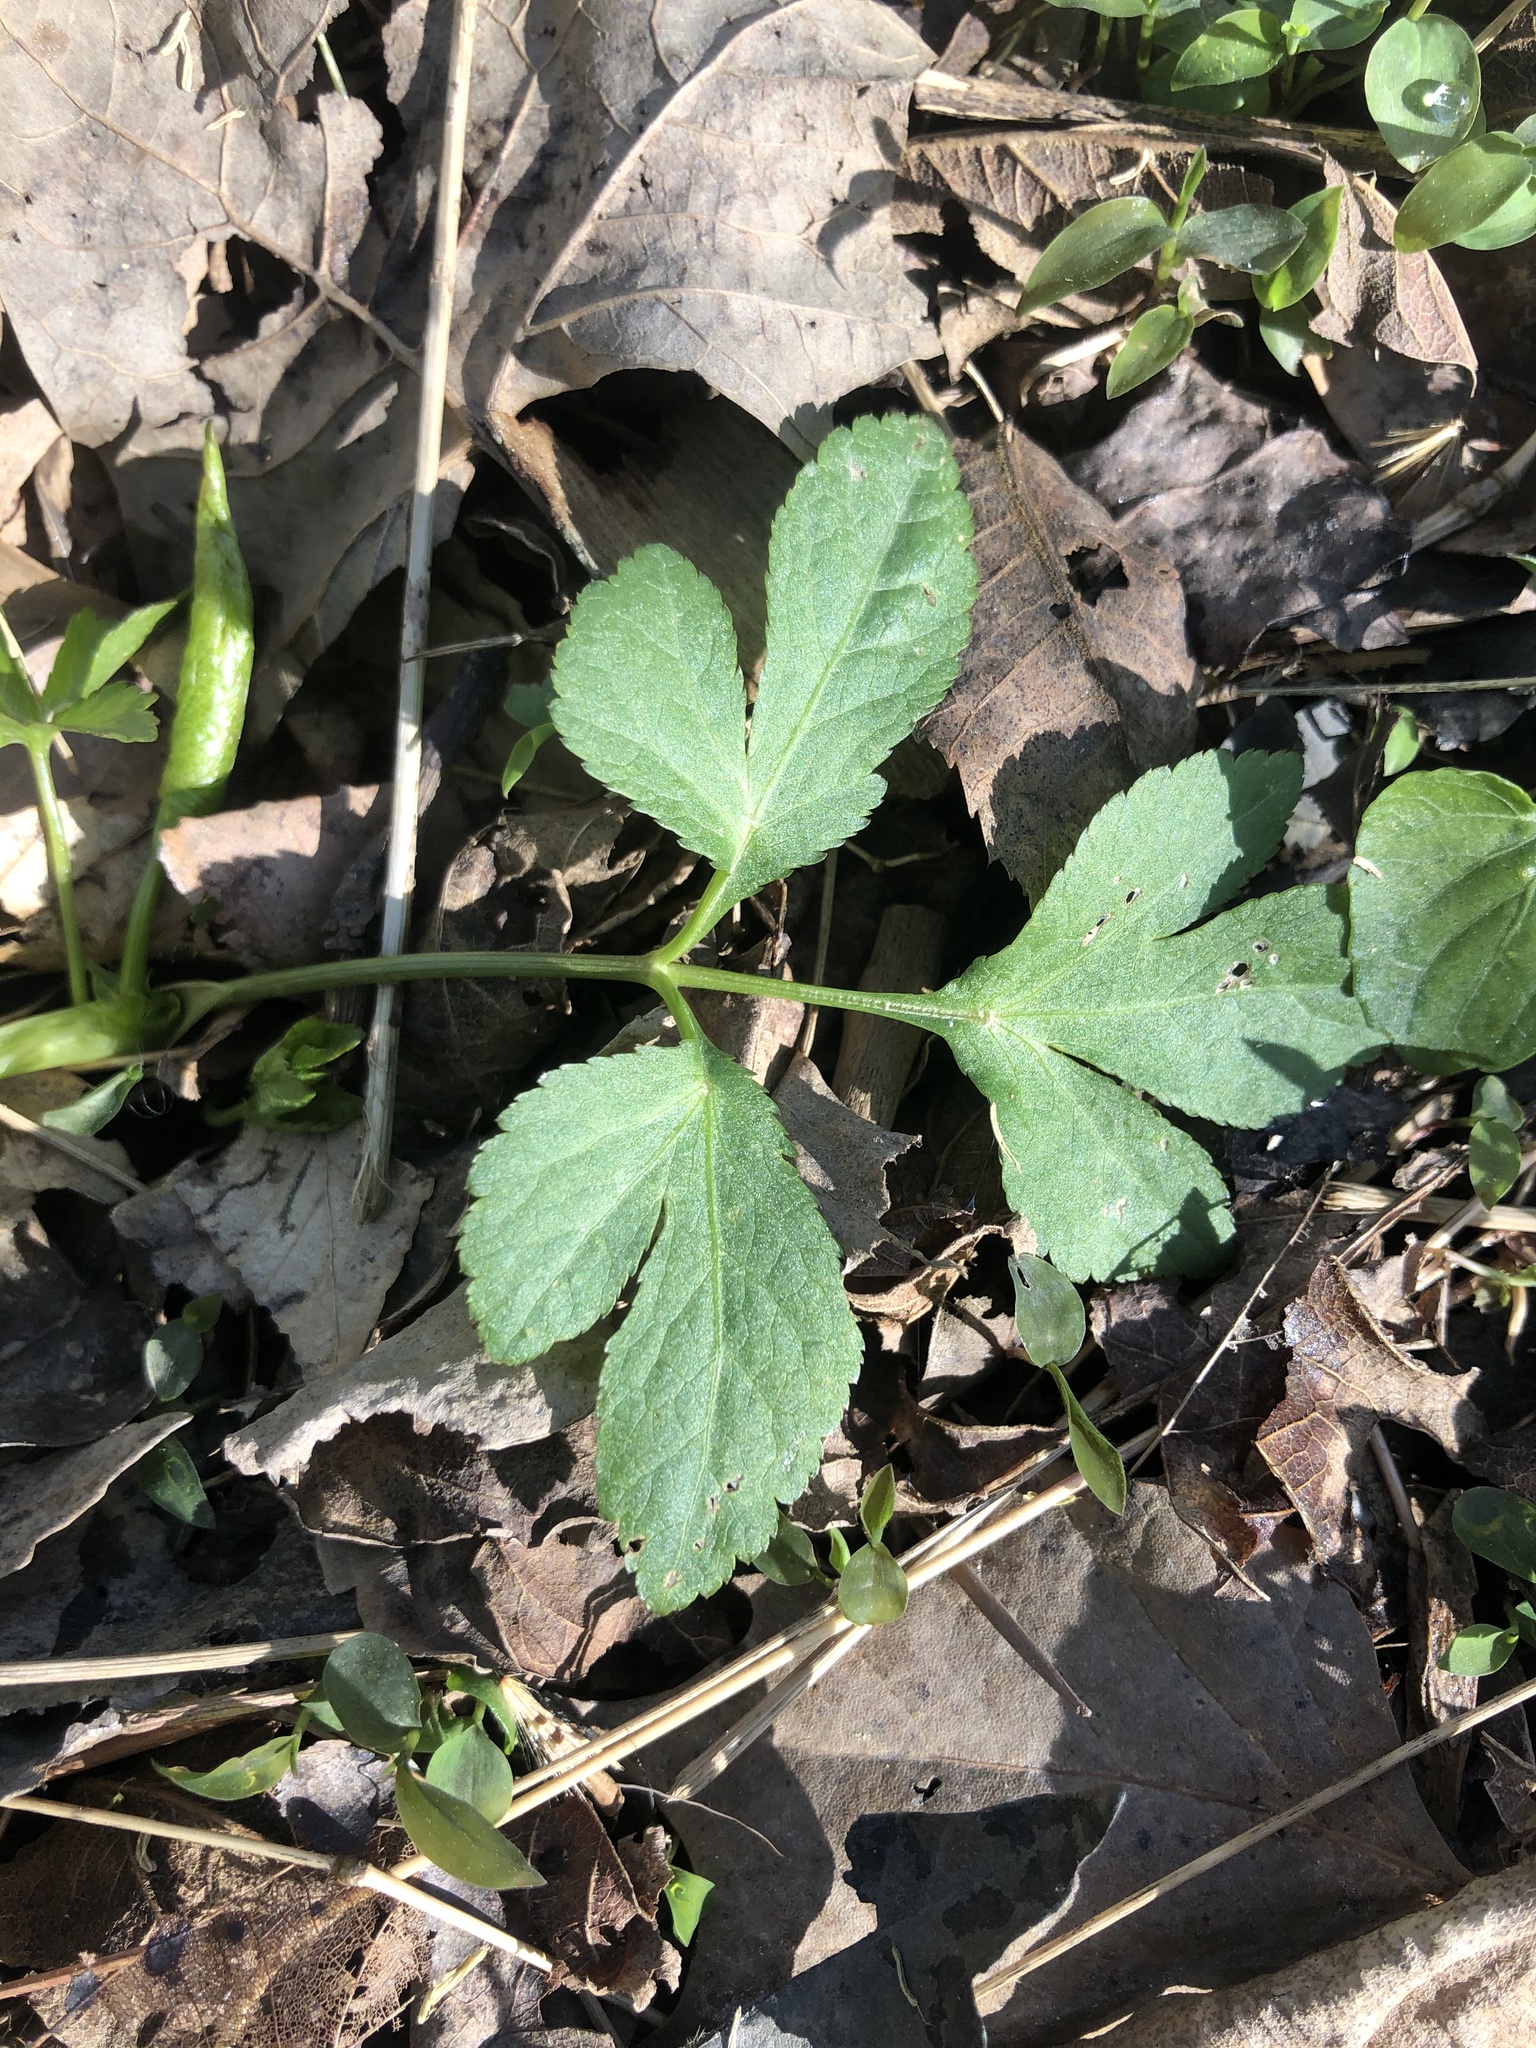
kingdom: Plantae
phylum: Tracheophyta
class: Magnoliopsida
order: Apiales
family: Apiaceae
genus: Zizia
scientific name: Zizia aurea
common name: Golden alexanders
